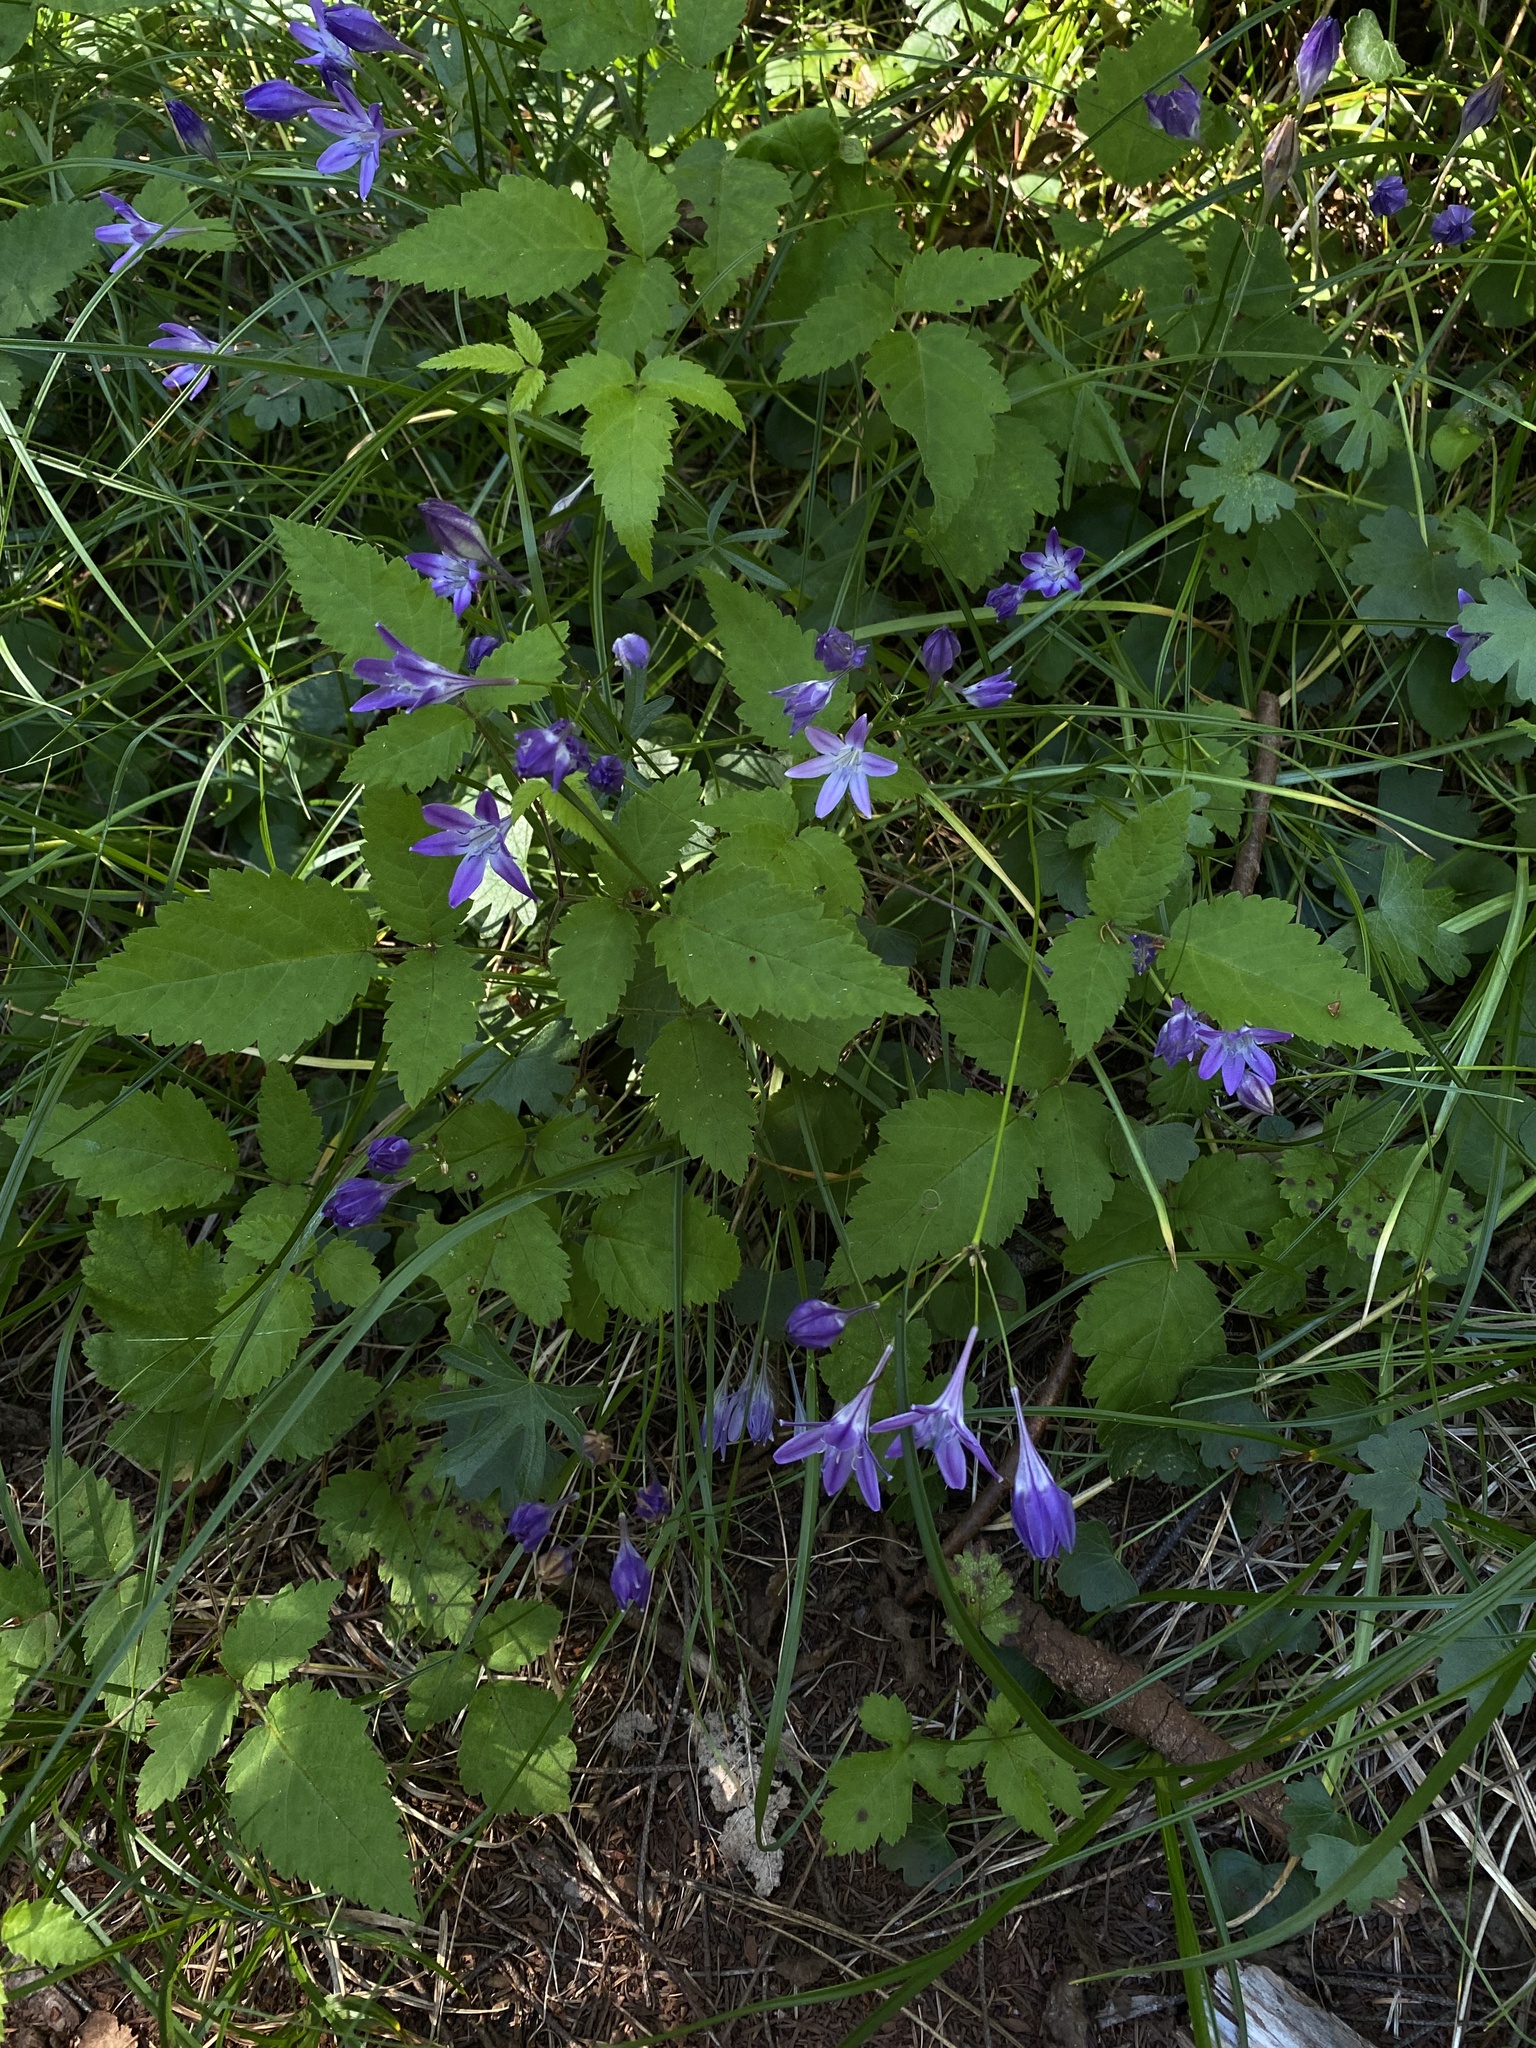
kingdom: Plantae
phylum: Tracheophyta
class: Liliopsida
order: Asparagales
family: Asparagaceae
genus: Triteleia
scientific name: Triteleia bridgesii
